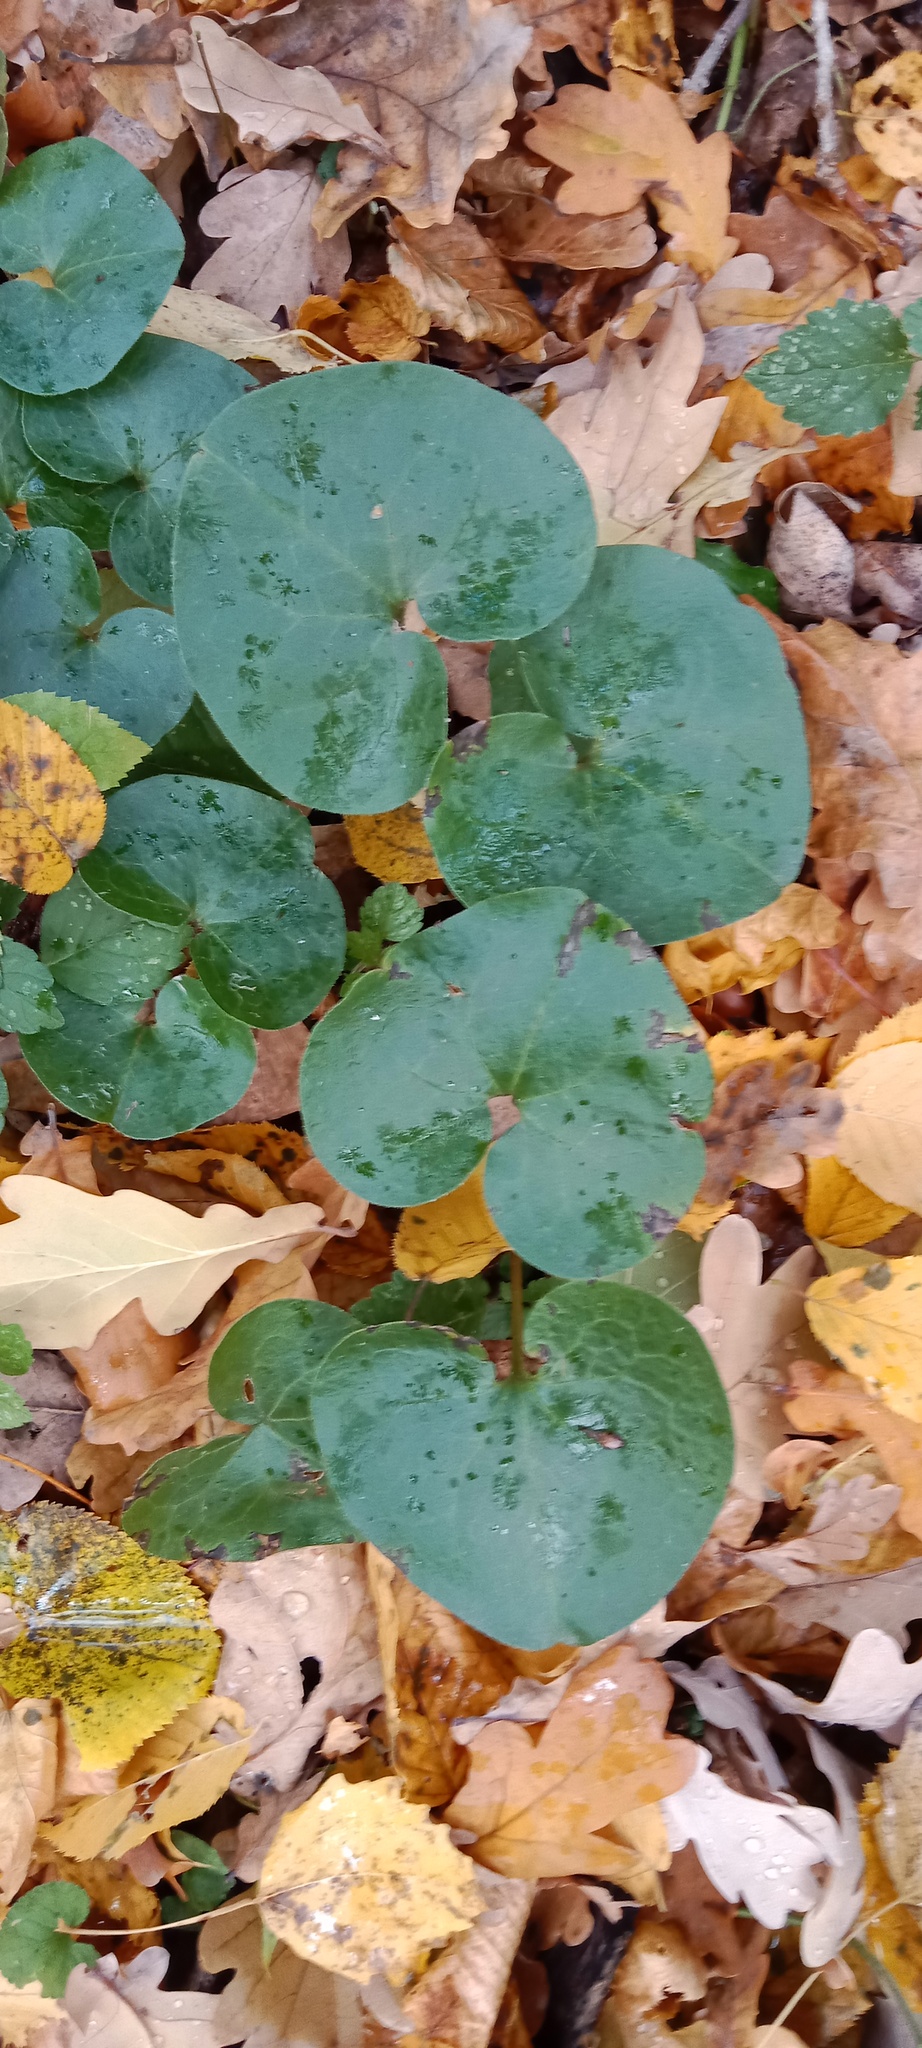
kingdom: Plantae
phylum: Tracheophyta
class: Magnoliopsida
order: Piperales
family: Aristolochiaceae
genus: Asarum
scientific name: Asarum europaeum
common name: Asarabacca
